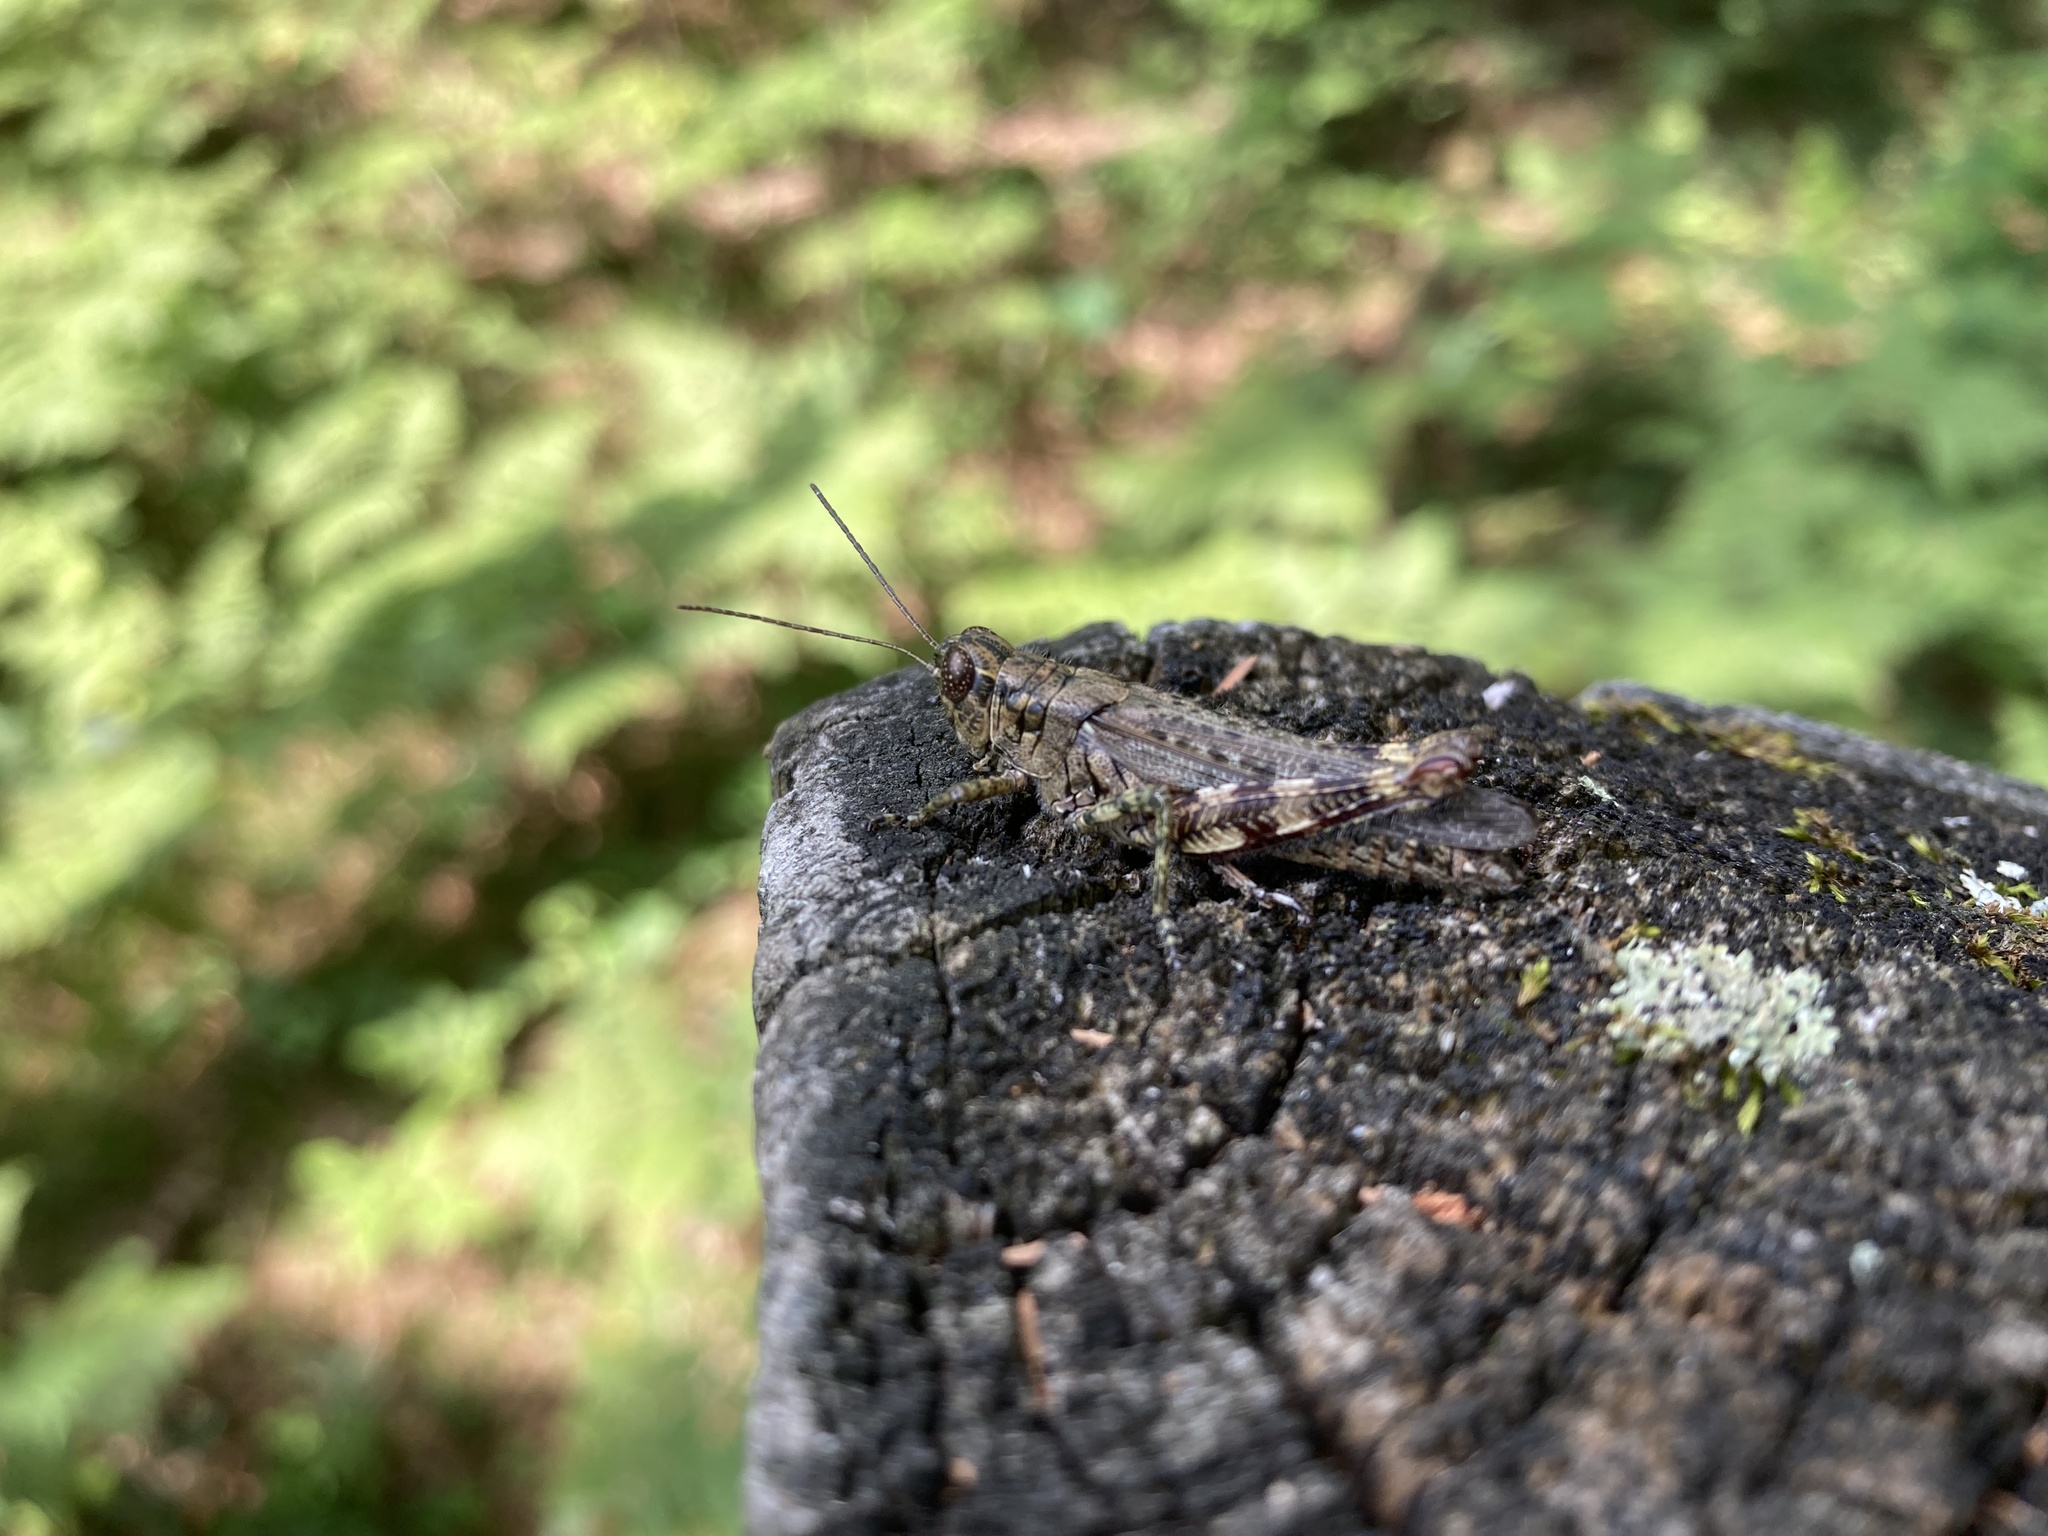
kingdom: Animalia
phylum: Arthropoda
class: Insecta
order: Orthoptera
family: Acrididae
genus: Melanoplus
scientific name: Melanoplus punctulatus
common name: Pine-tree spur-throat grasshopper
